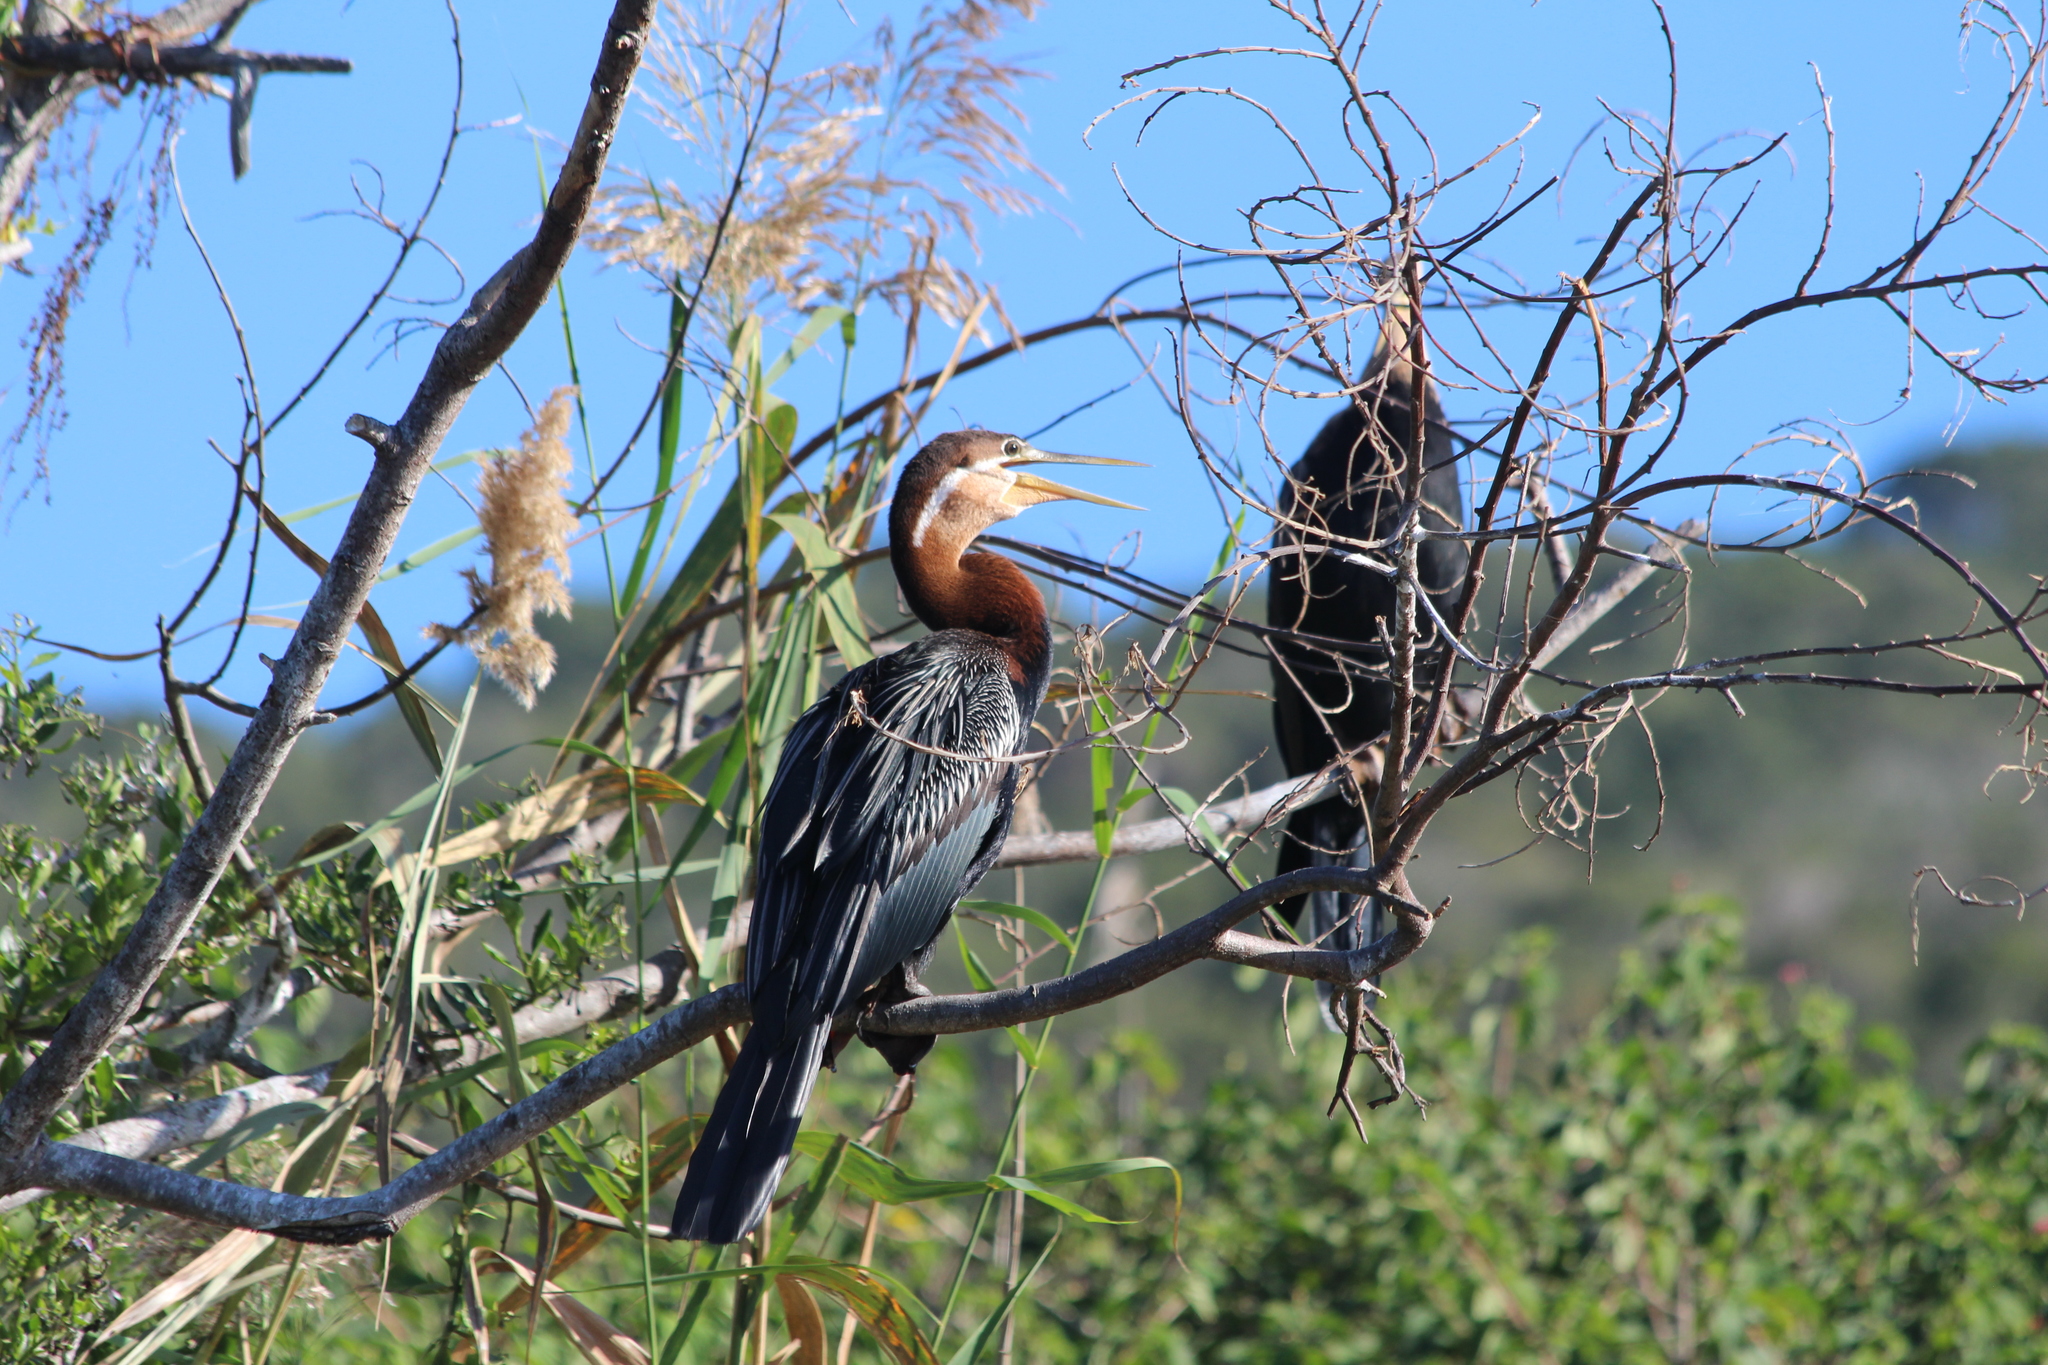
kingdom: Animalia
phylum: Chordata
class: Aves
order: Suliformes
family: Anhingidae
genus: Anhinga
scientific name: Anhinga rufa
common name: African darter
